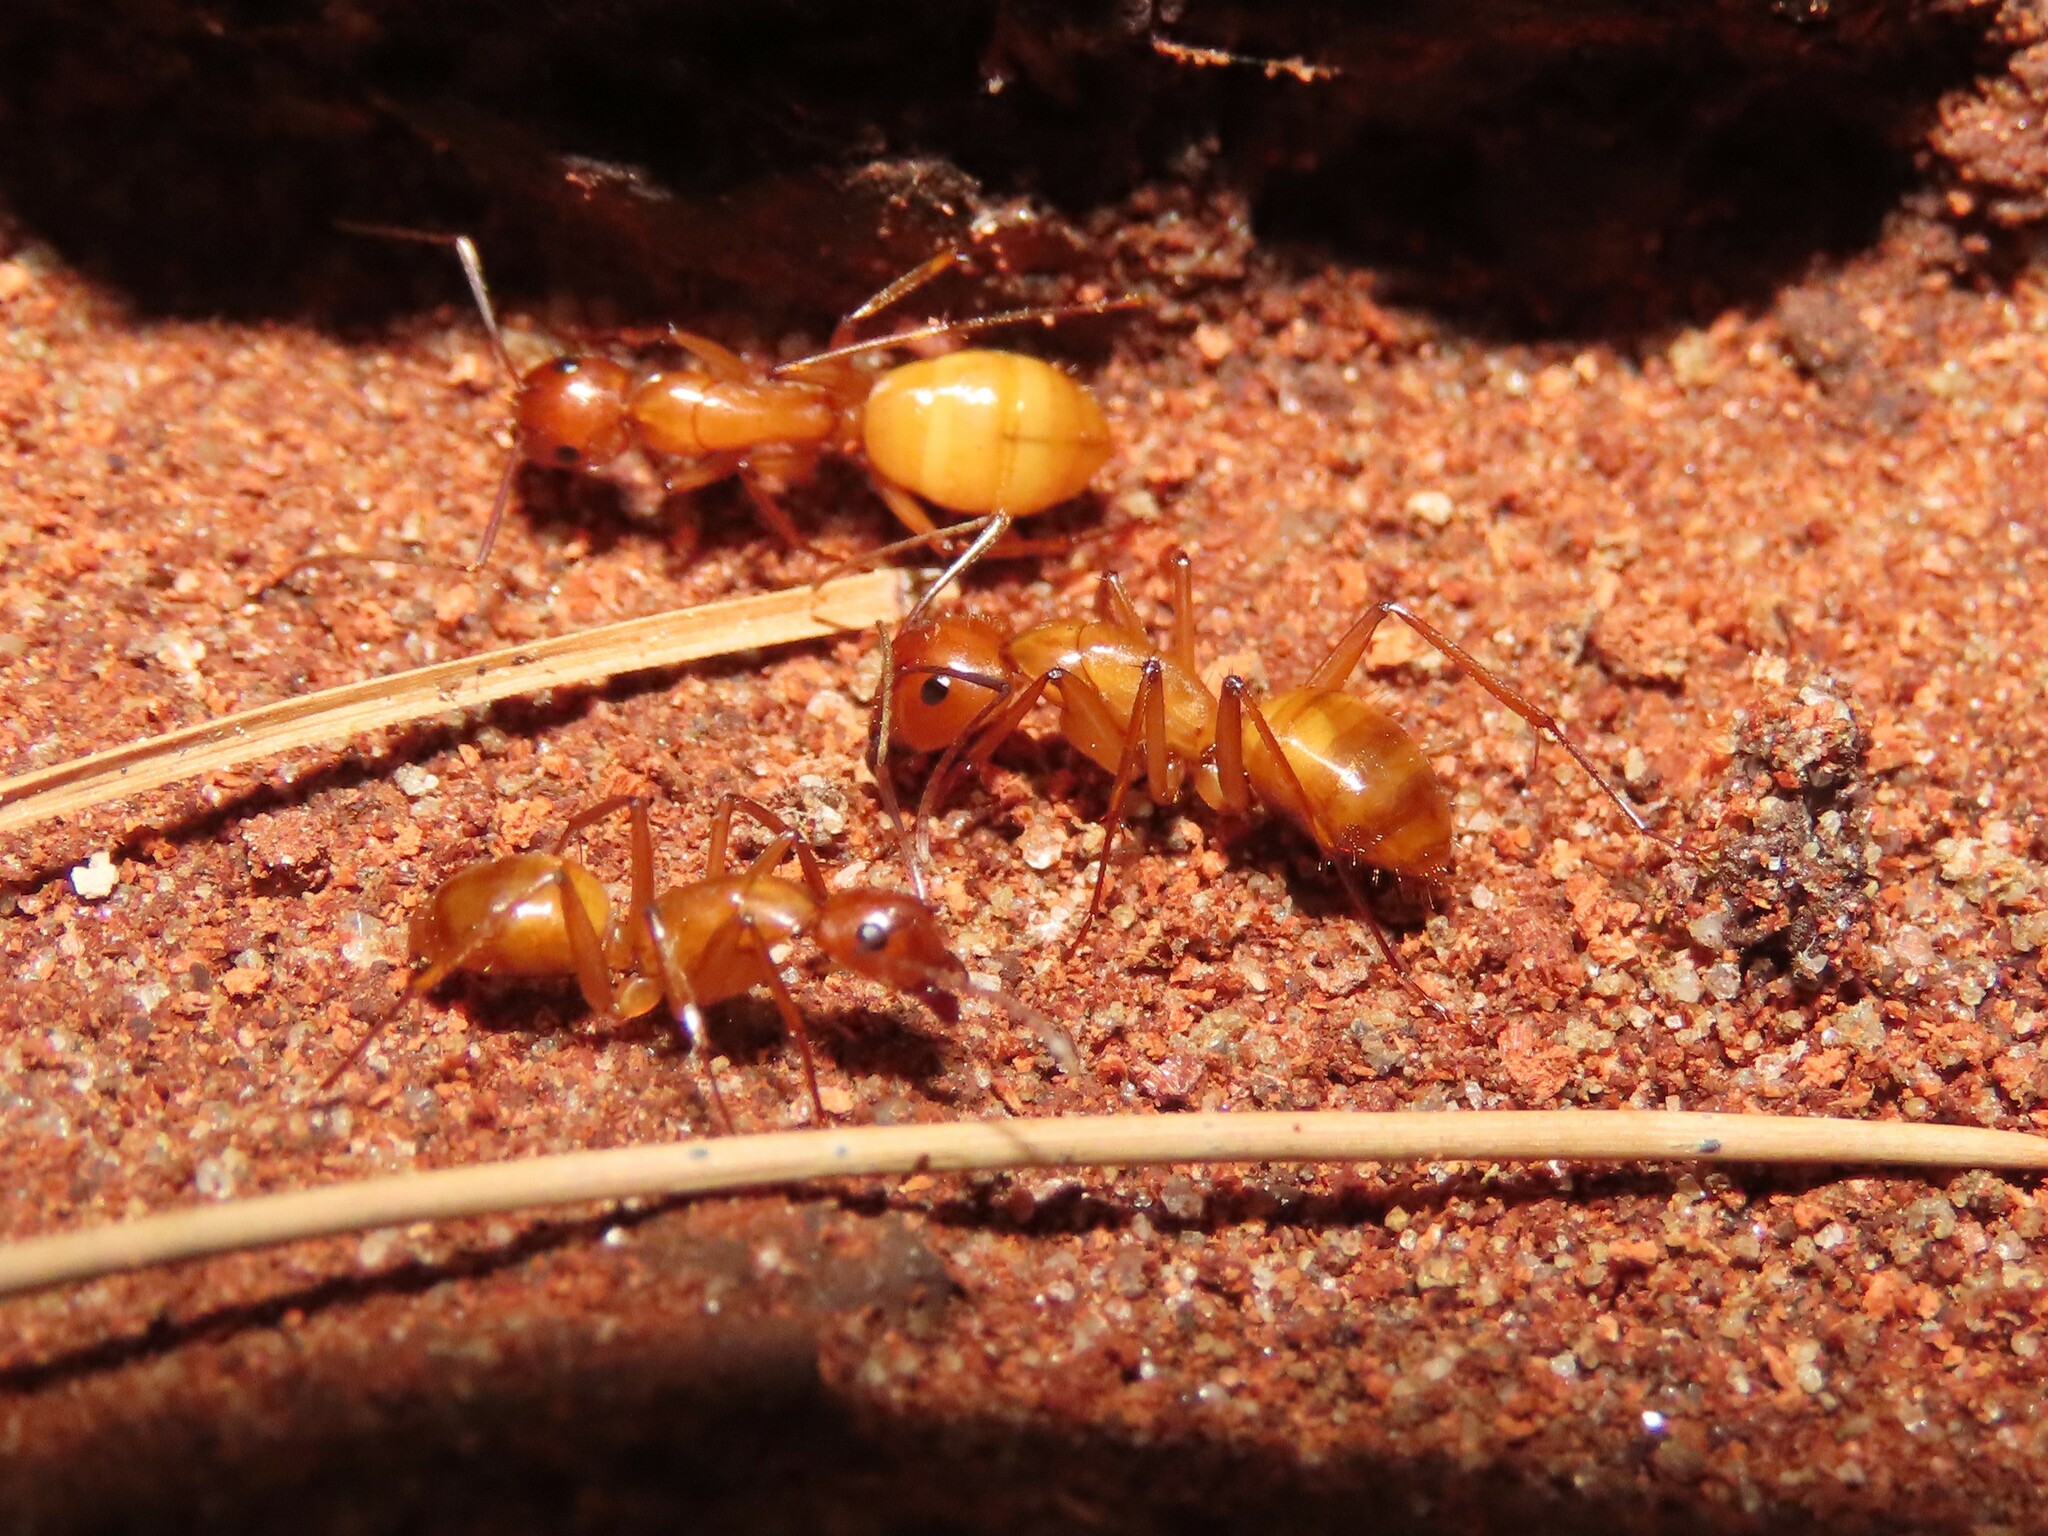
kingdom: Animalia
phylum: Arthropoda
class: Insecta
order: Hymenoptera
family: Formicidae
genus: Camponotus
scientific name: Camponotus castaneus
